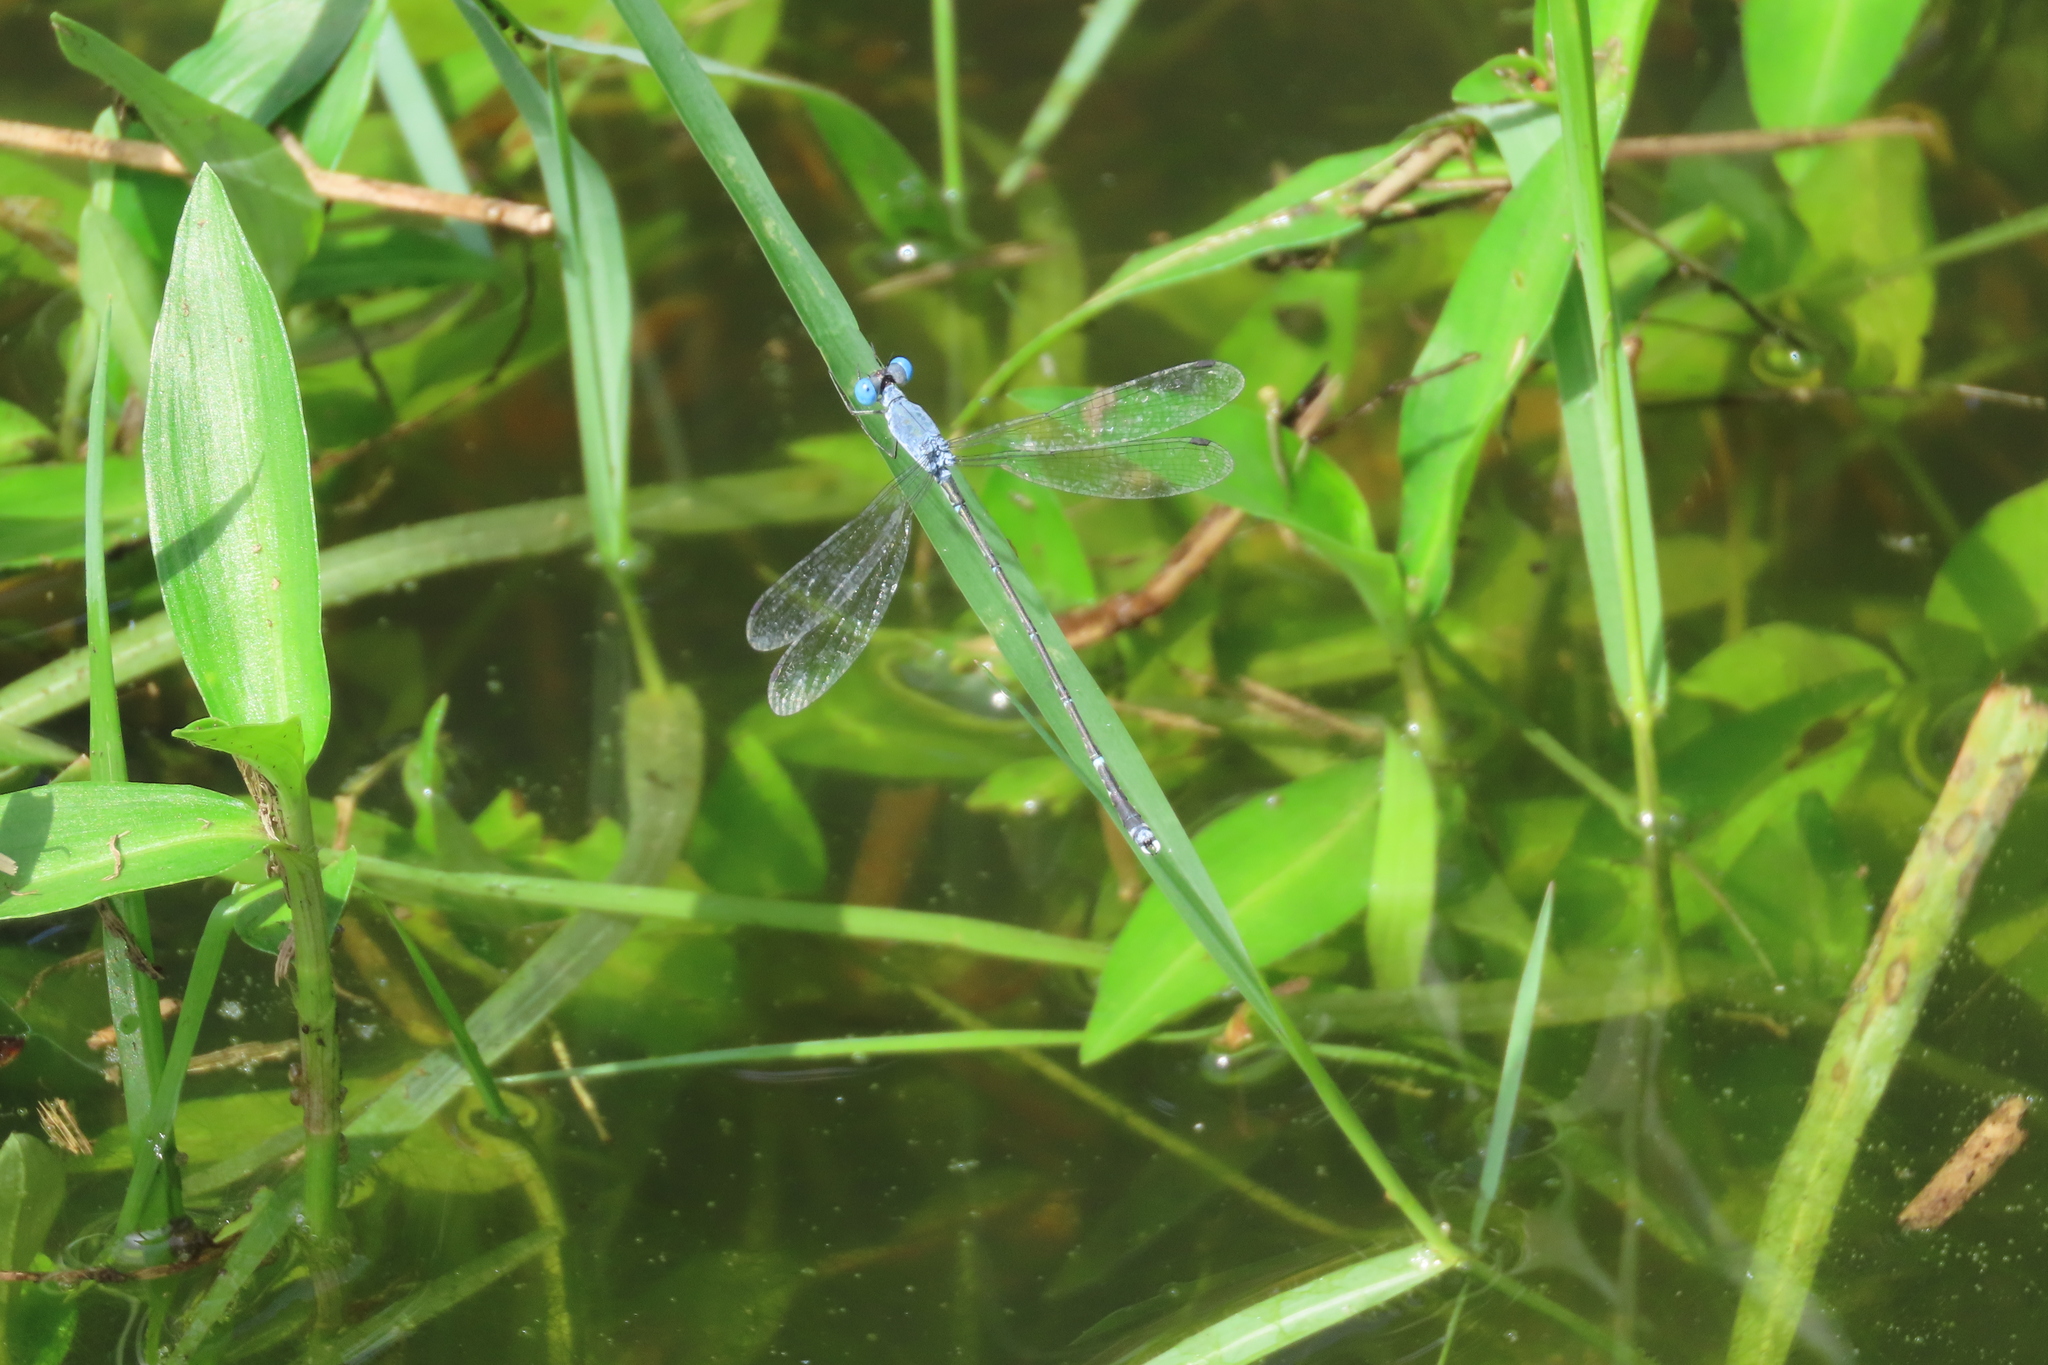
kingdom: Animalia
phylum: Arthropoda
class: Insecta
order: Odonata
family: Lestidae
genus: Lestes
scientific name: Lestes praemorsus
